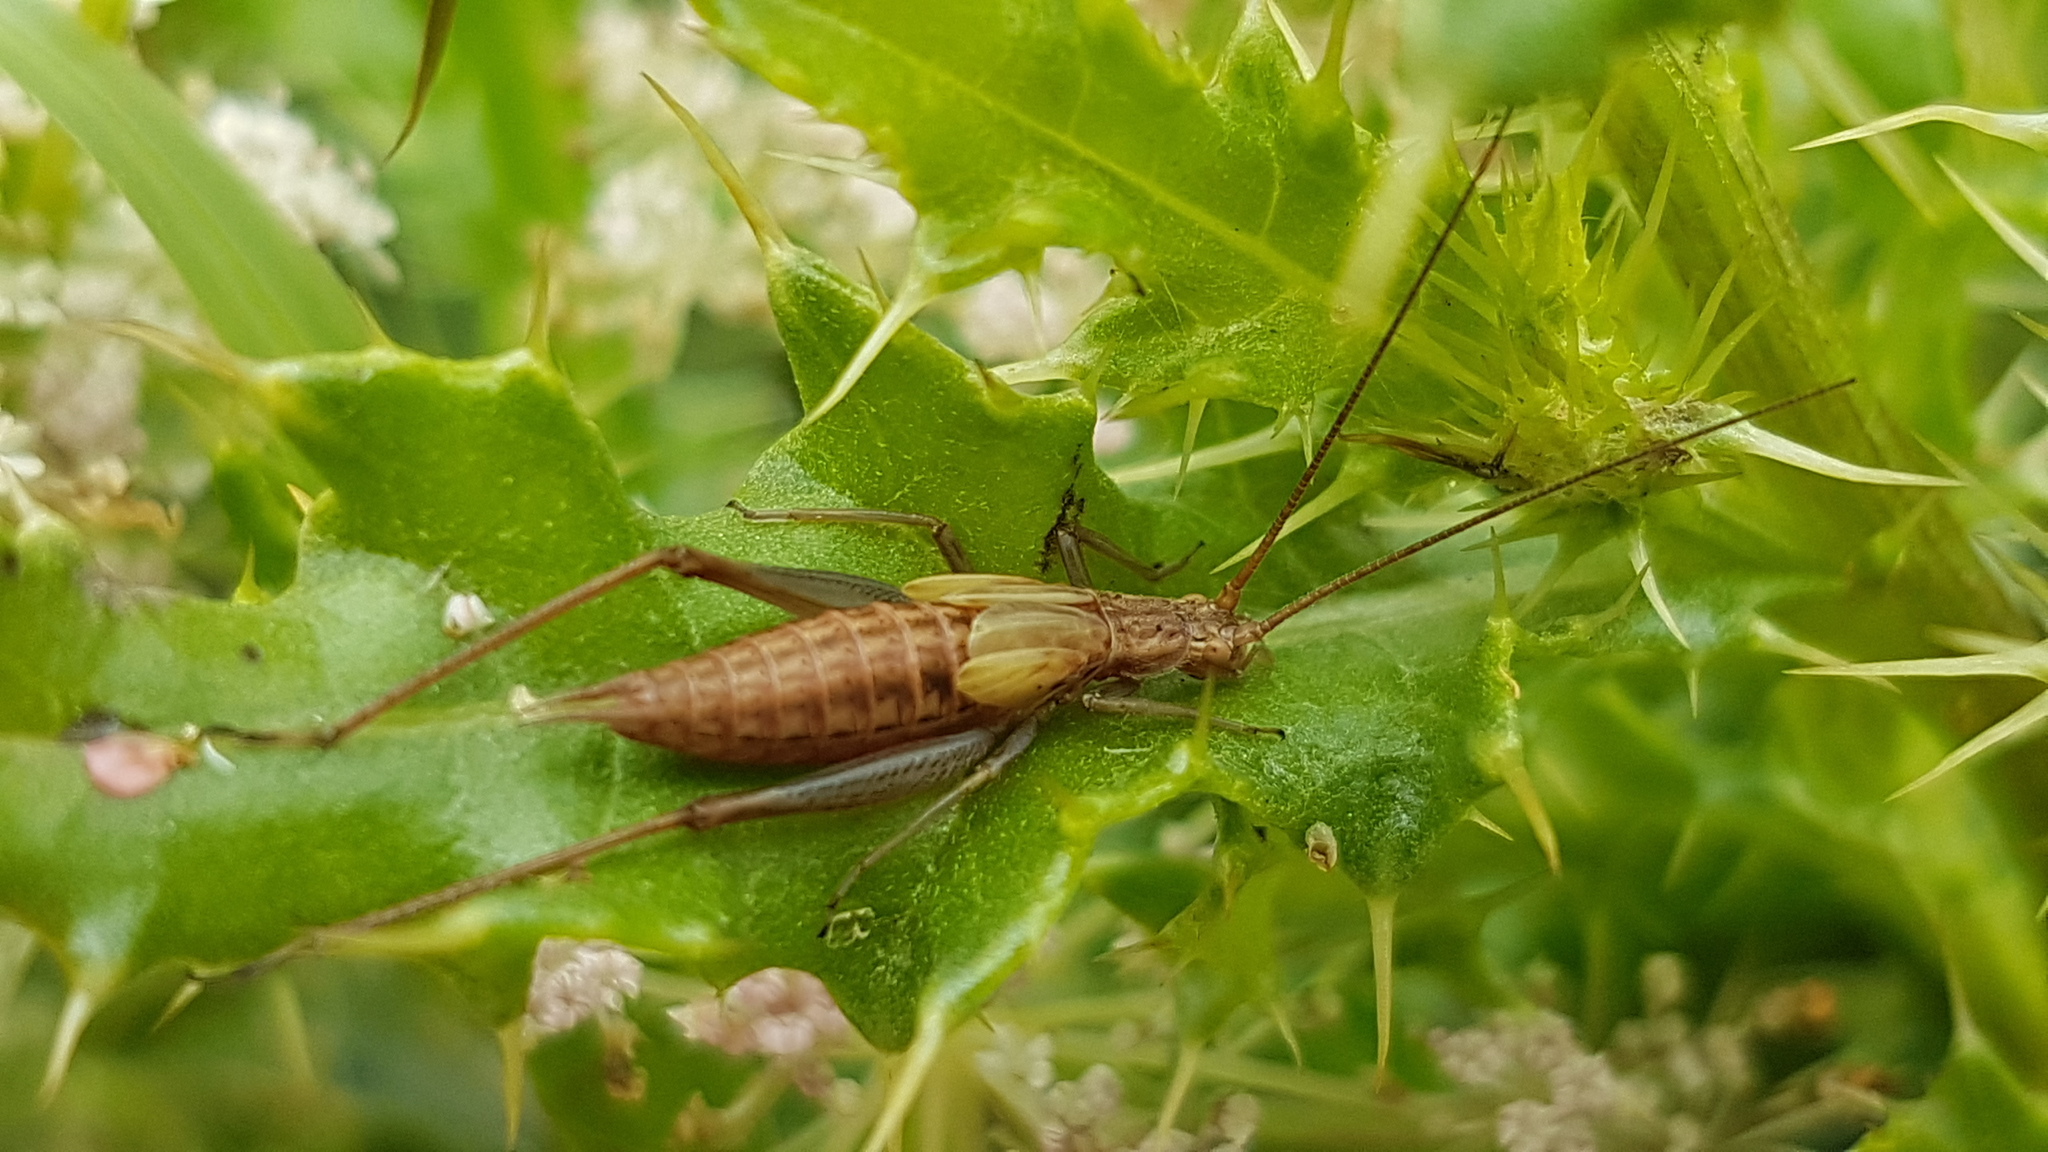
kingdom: Animalia
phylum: Arthropoda
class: Insecta
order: Orthoptera
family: Gryllidae
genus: Oecanthus
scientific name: Oecanthus pellucens
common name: Tree-cricket
